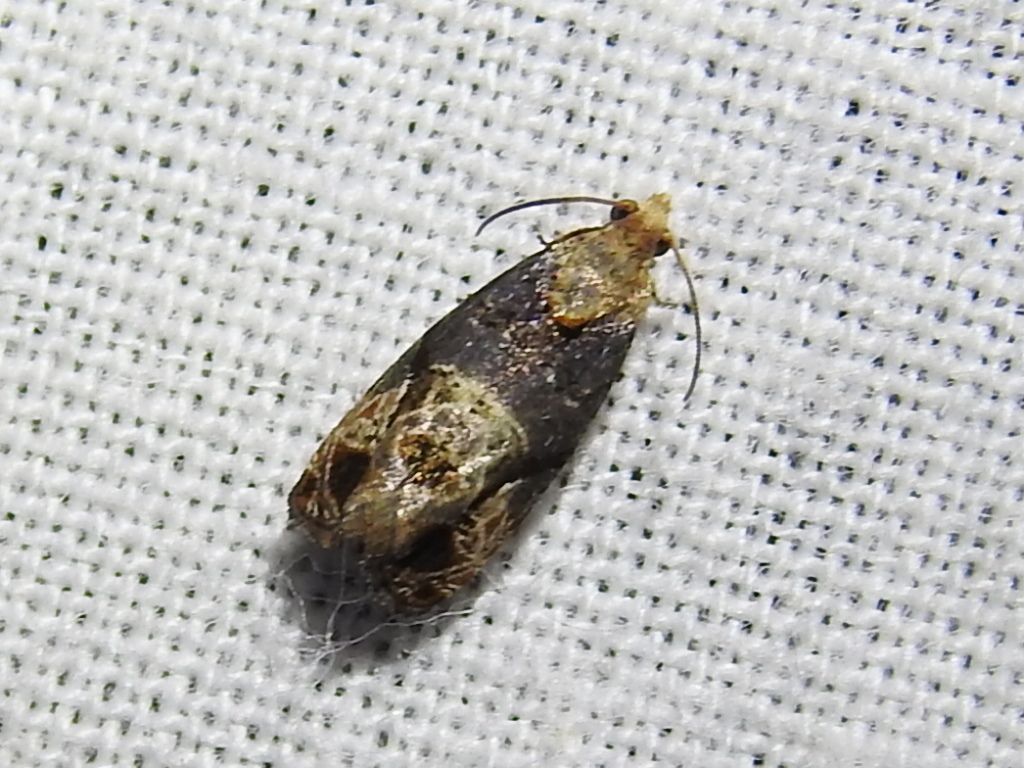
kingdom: Animalia
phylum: Arthropoda
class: Insecta
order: Lepidoptera
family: Tortricidae
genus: Paralobesia
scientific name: Paralobesia viteana
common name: Grape berry moth
